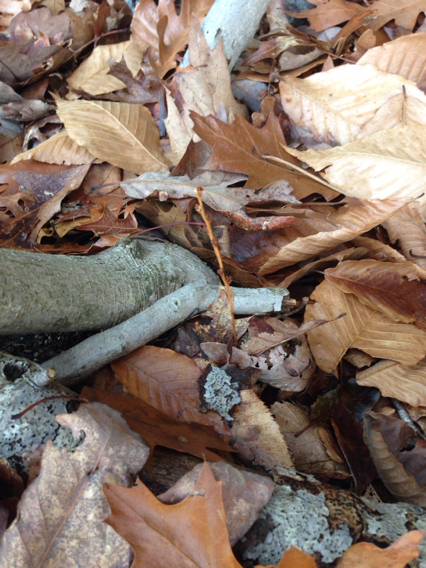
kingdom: Plantae
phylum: Tracheophyta
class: Magnoliopsida
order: Lamiales
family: Orobanchaceae
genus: Epifagus
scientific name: Epifagus virginiana
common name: Beechdrops
